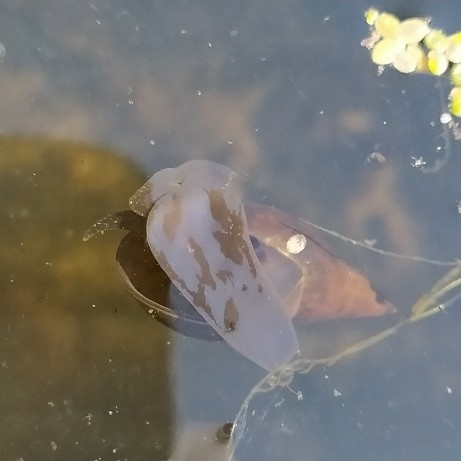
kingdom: Animalia
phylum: Mollusca
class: Gastropoda
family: Lymnaeidae
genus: Lymnaea
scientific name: Lymnaea stagnalis
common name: Great pond snail
